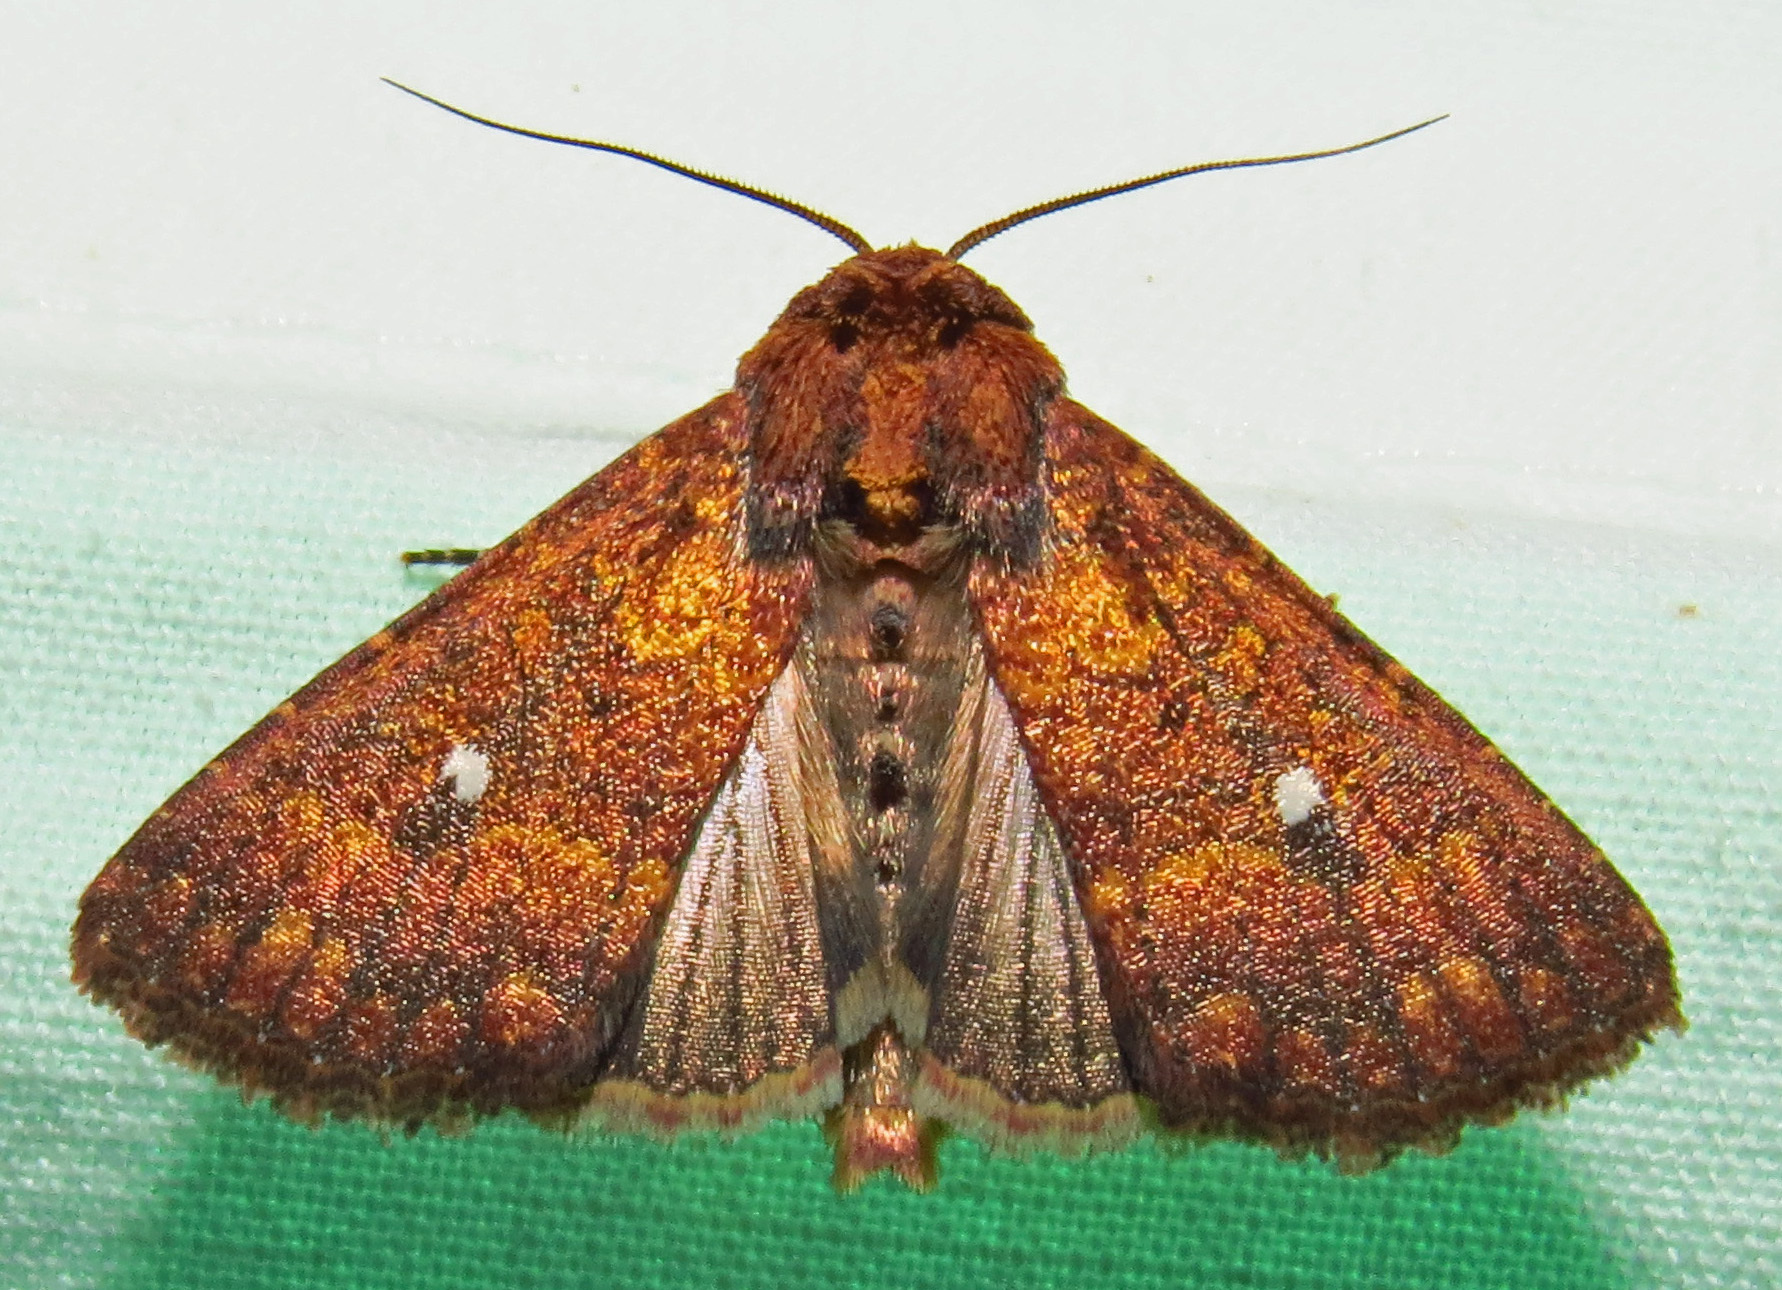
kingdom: Animalia
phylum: Arthropoda
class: Insecta
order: Lepidoptera
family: Noctuidae
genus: Condica
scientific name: Condica mobilis
